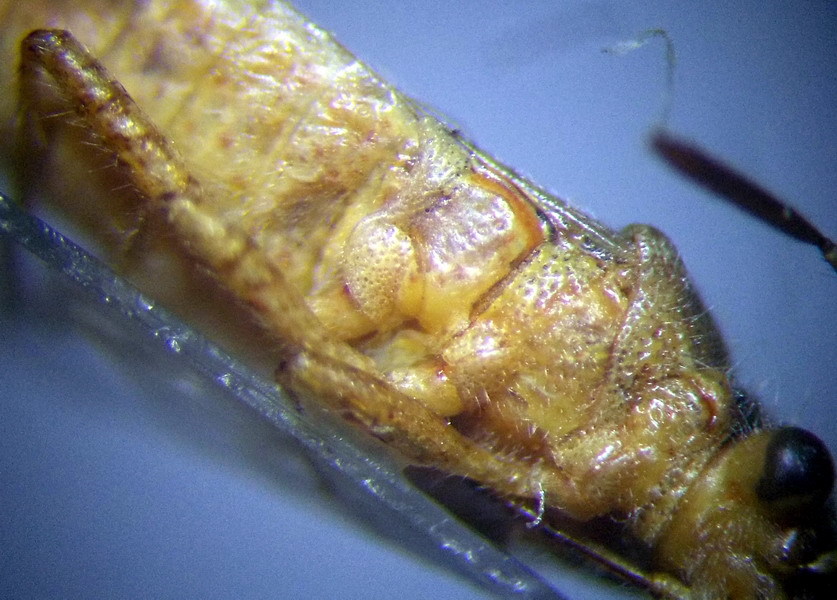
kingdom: Animalia
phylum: Arthropoda
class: Insecta
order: Hemiptera
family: Rhopalidae
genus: Brachycarenus
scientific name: Brachycarenus tigrinus
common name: Scentless plant bug
